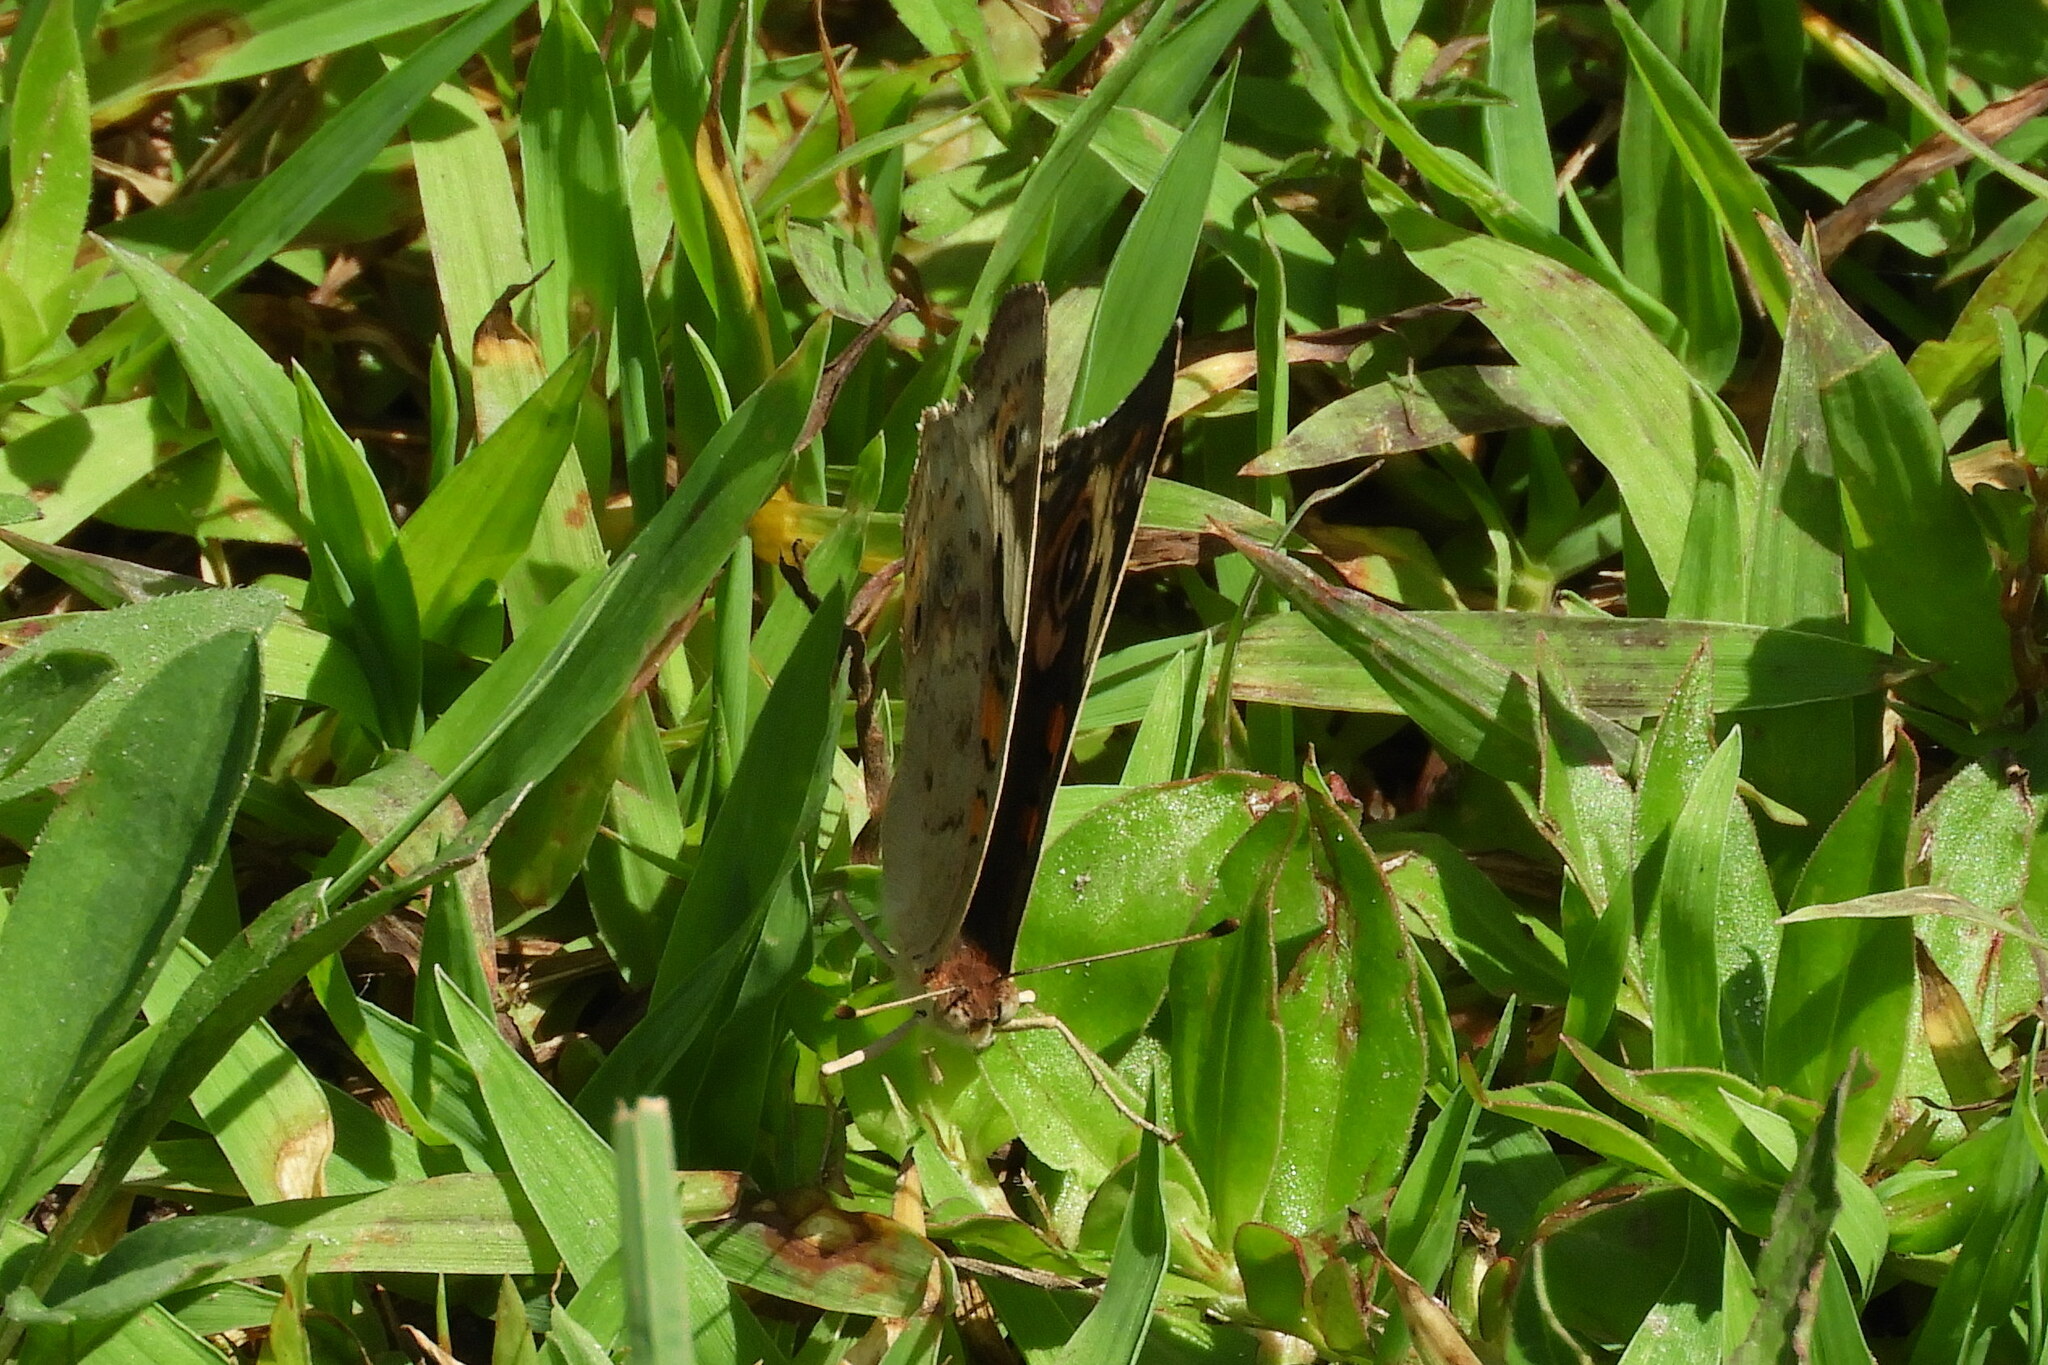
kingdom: Animalia
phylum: Arthropoda
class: Insecta
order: Lepidoptera
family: Nymphalidae
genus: Junonia
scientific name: Junonia coenia
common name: Common buckeye
